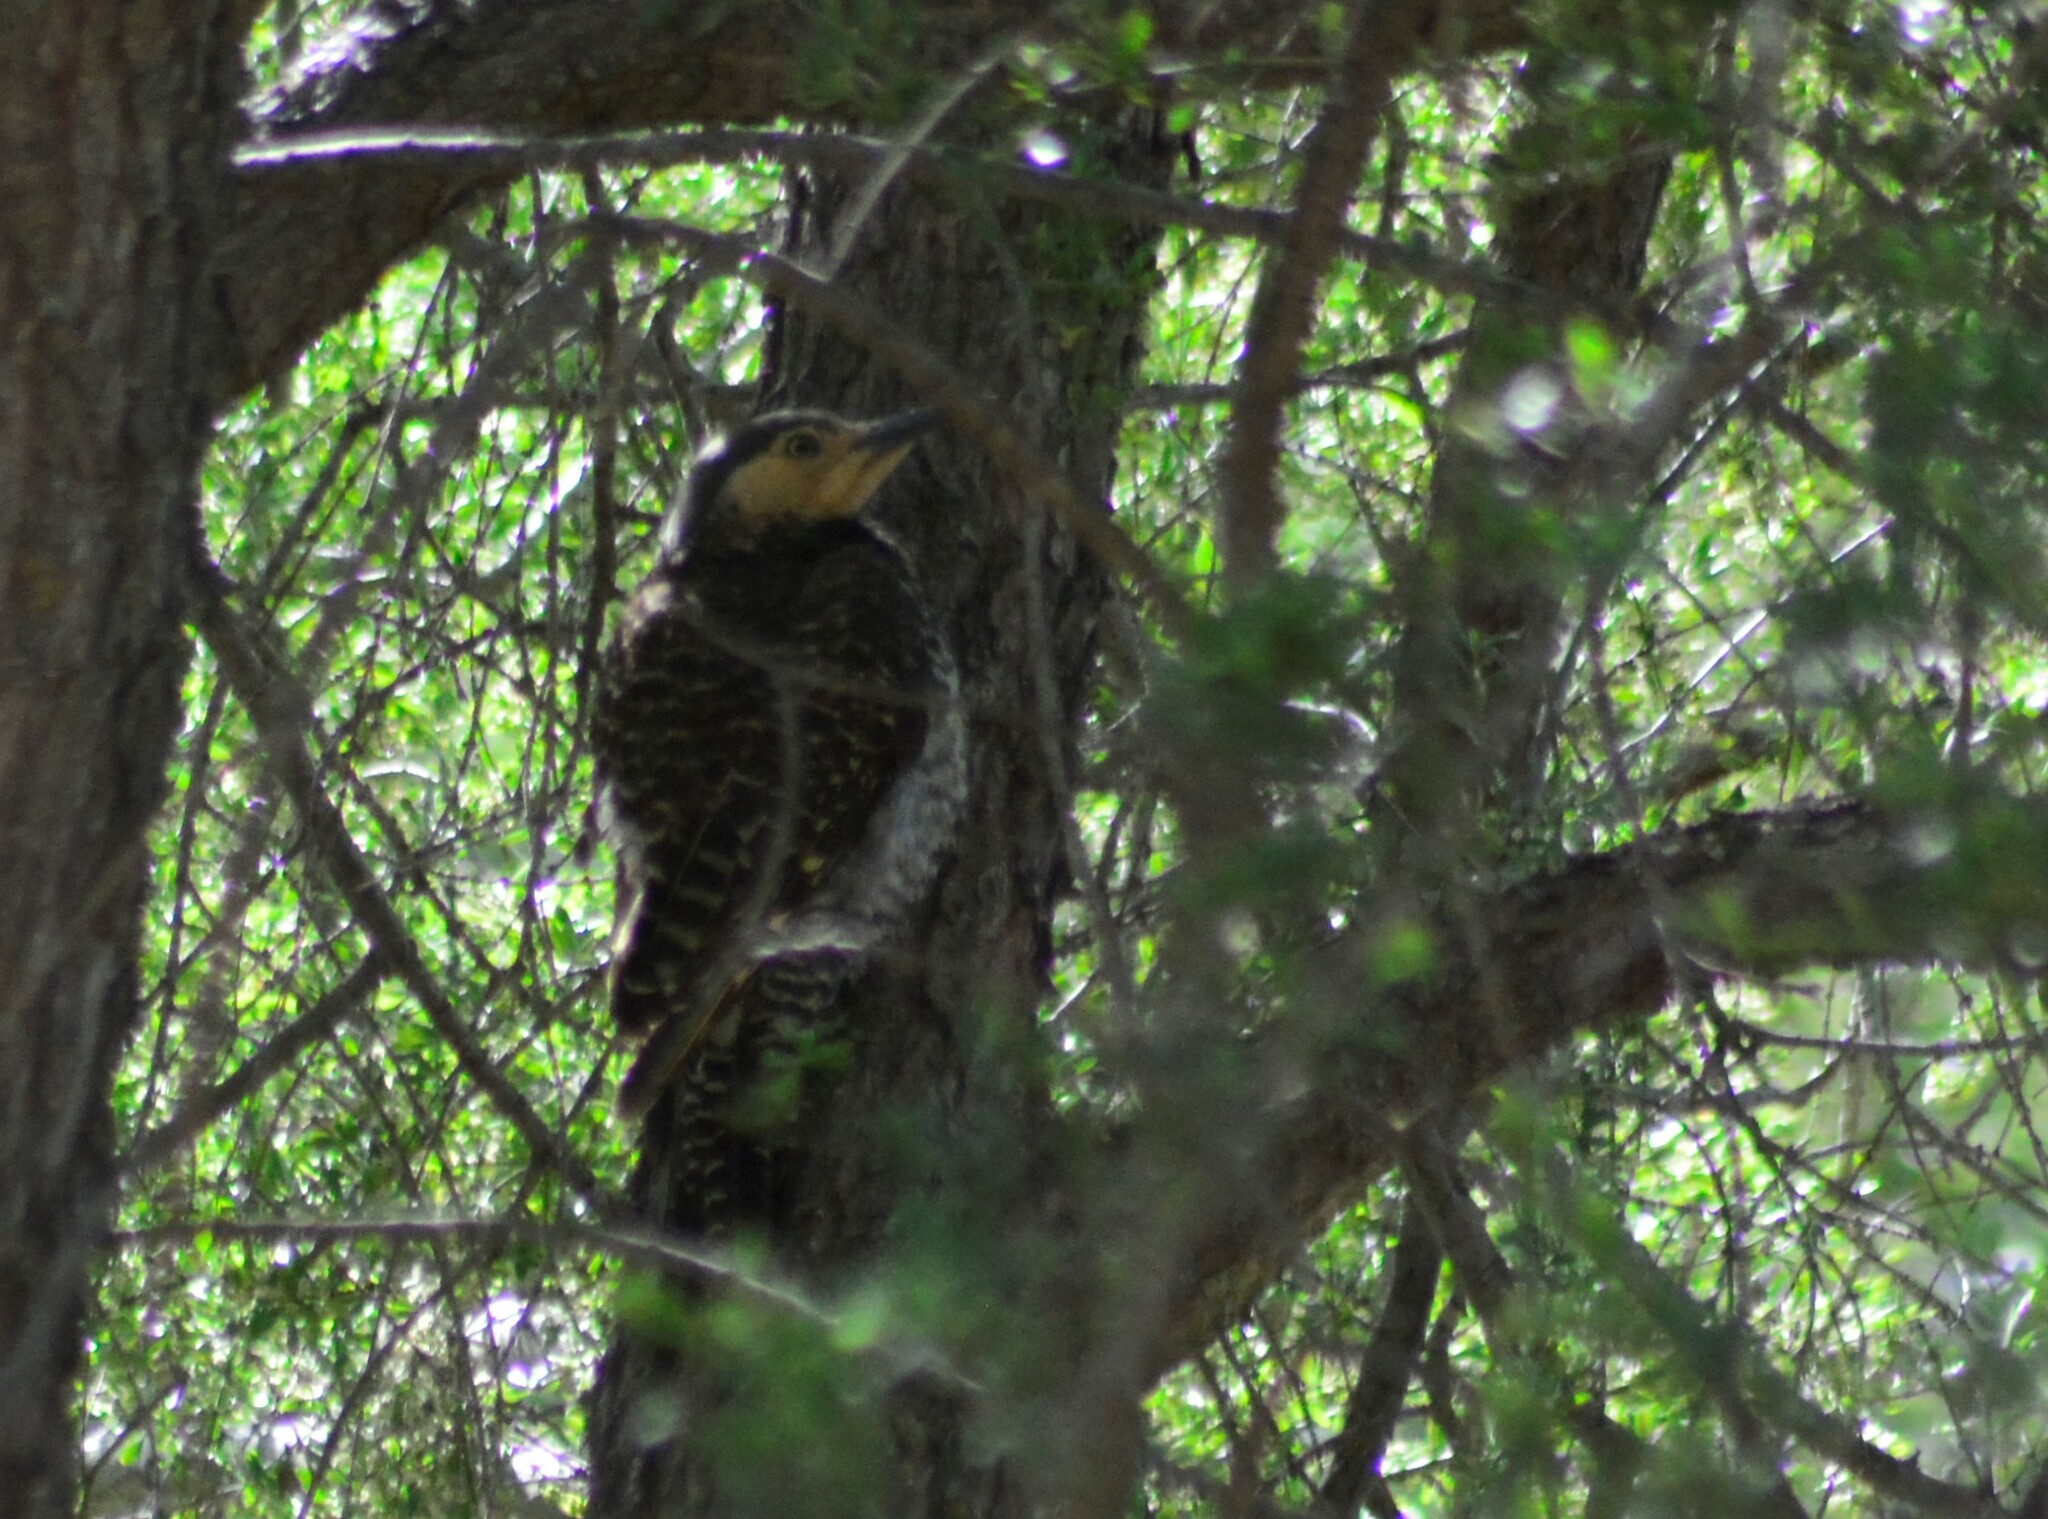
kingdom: Animalia
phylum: Chordata
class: Aves
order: Piciformes
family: Picidae
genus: Colaptes
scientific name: Colaptes pitius
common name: Chilean flicker
